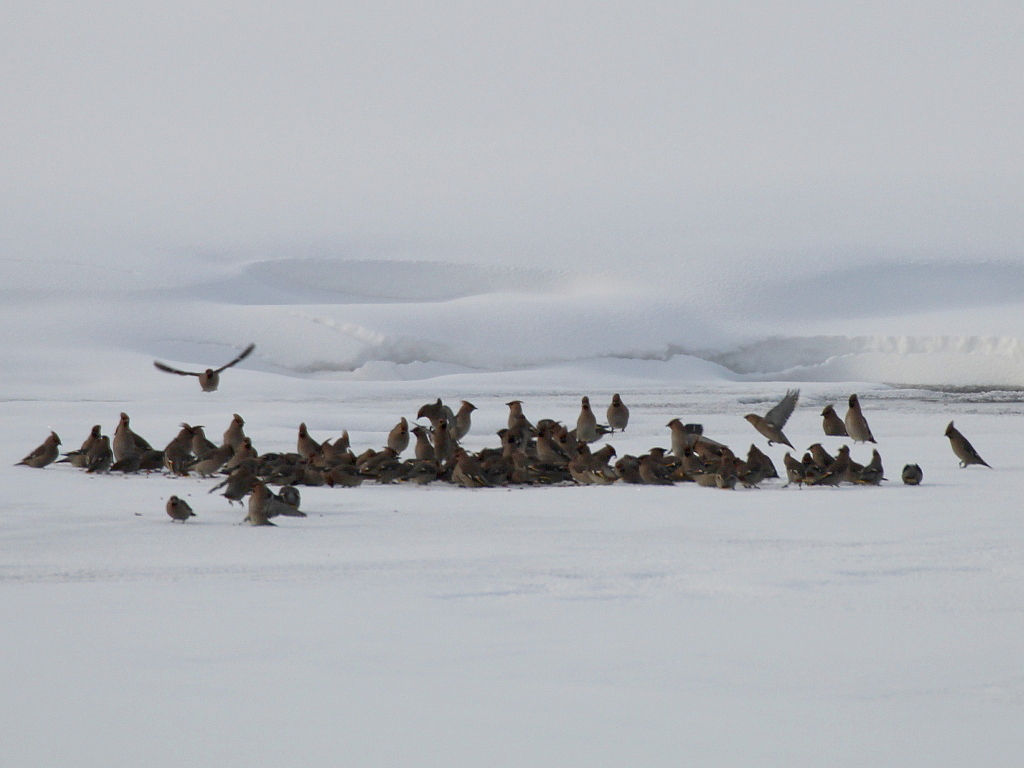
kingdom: Animalia
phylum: Chordata
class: Aves
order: Passeriformes
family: Bombycillidae
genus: Bombycilla
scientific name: Bombycilla garrulus
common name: Bohemian waxwing
